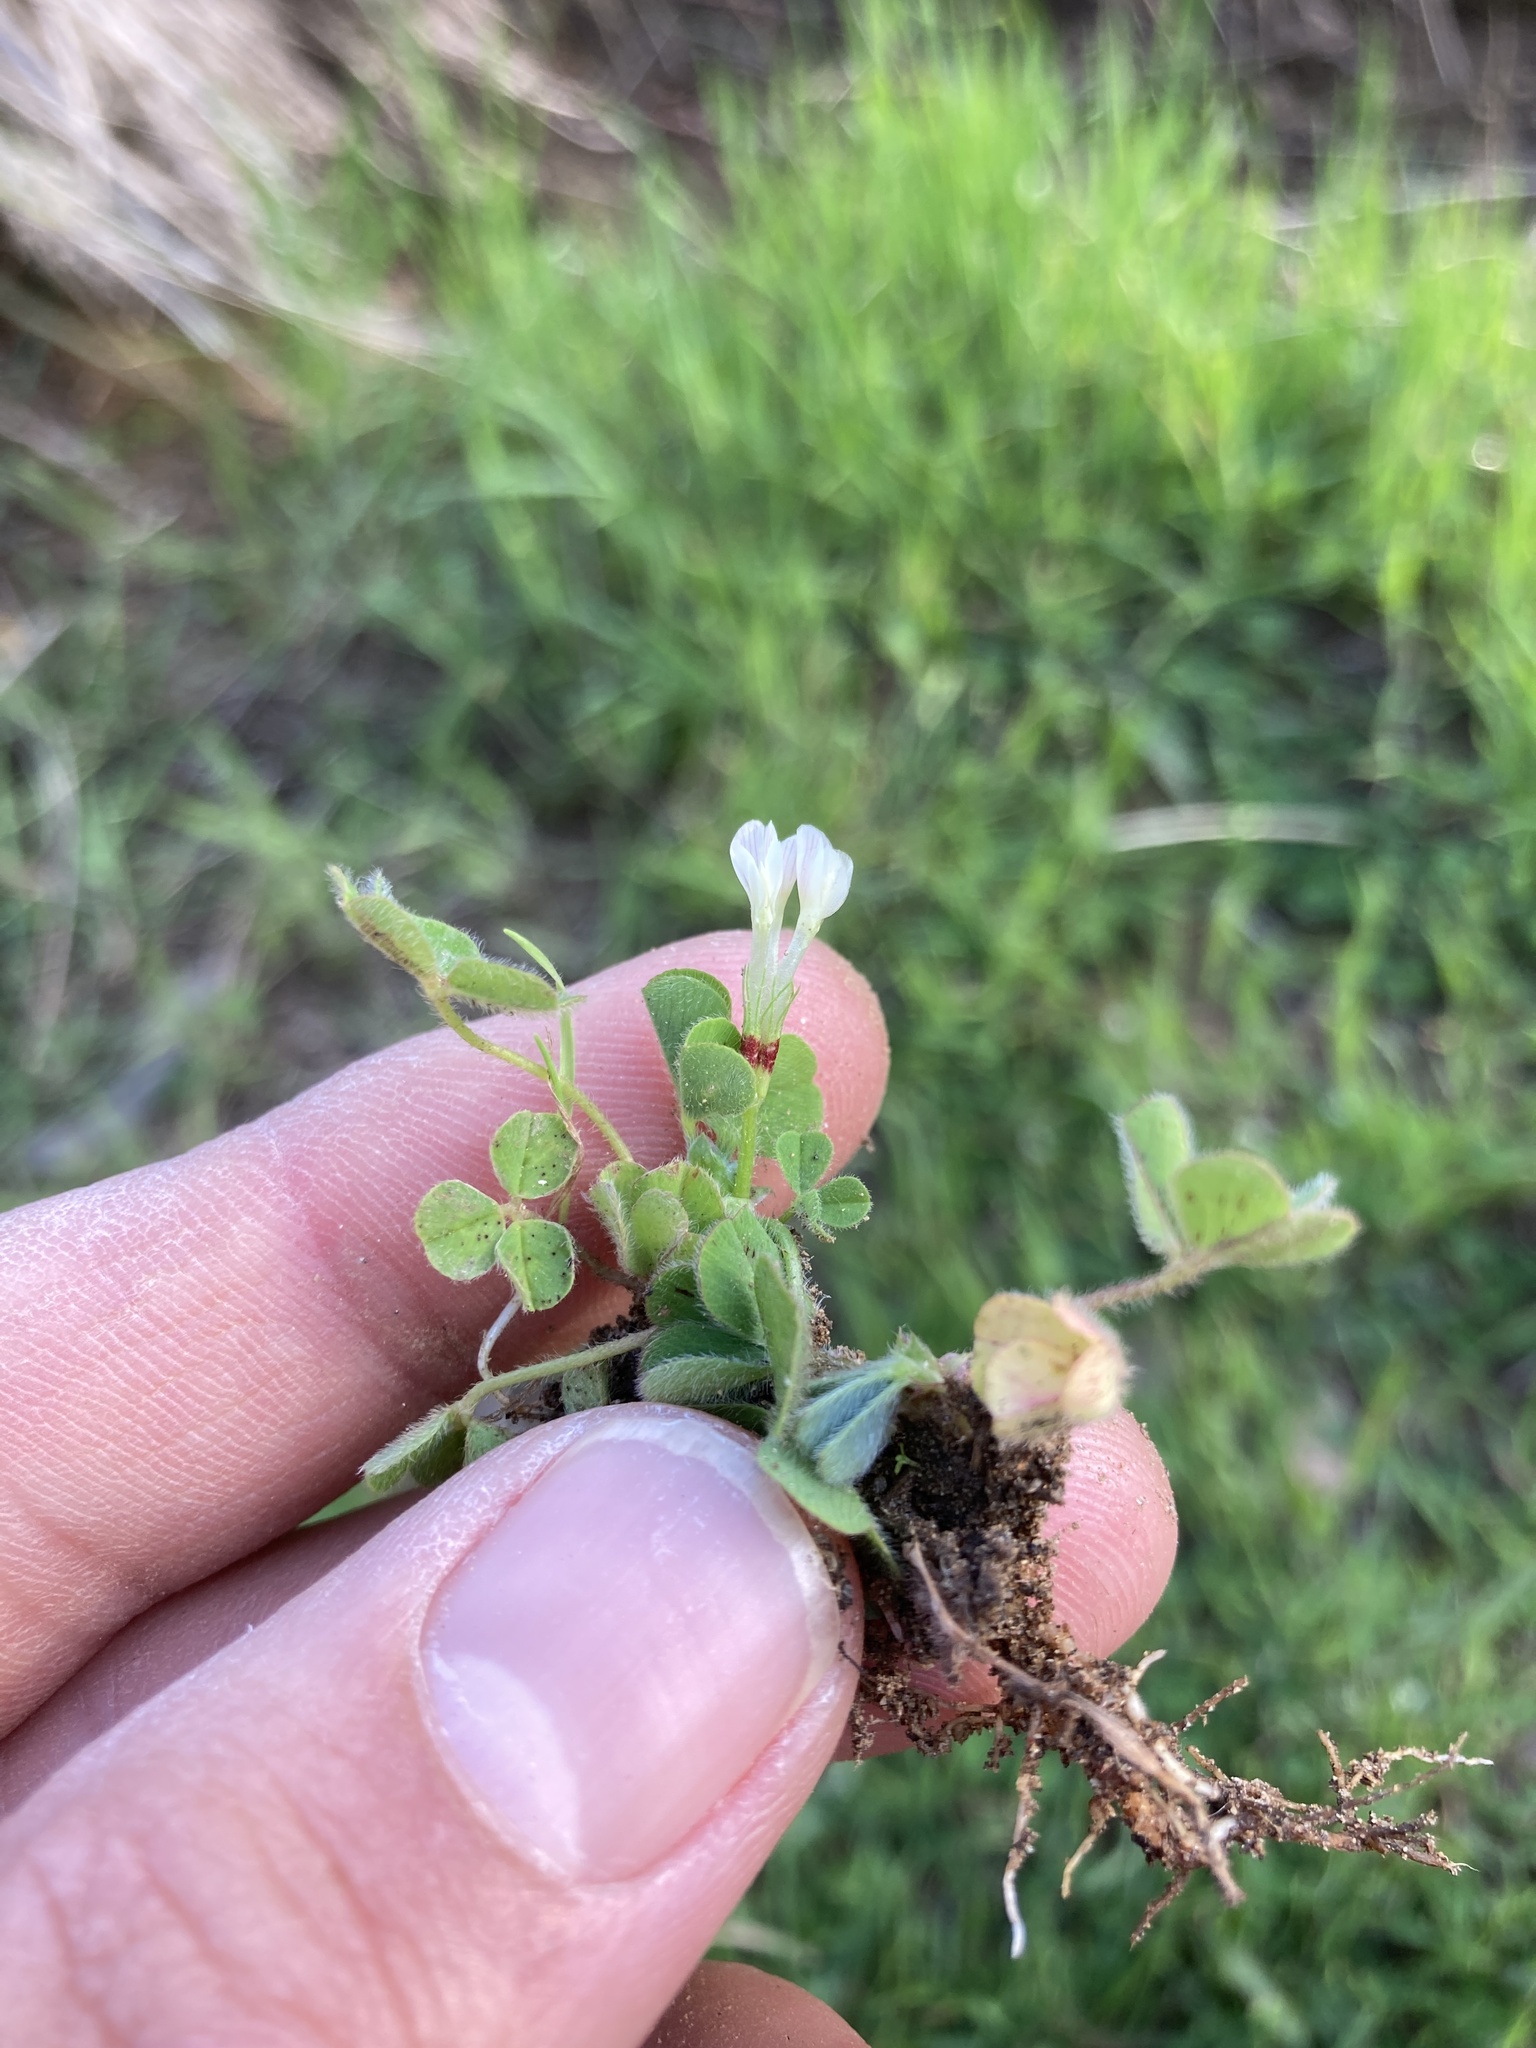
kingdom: Plantae
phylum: Tracheophyta
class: Magnoliopsida
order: Fabales
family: Fabaceae
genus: Trifolium
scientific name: Trifolium subterraneum
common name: Subterranean clover
